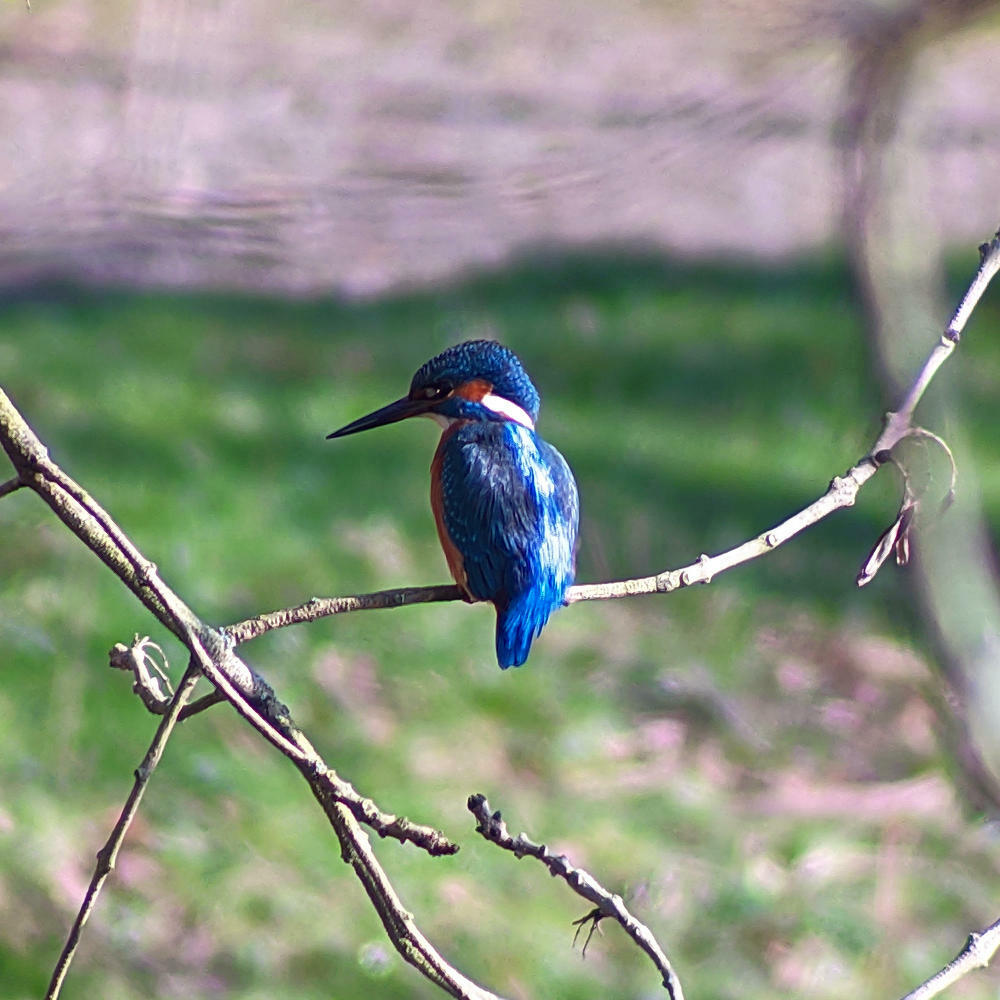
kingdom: Animalia
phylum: Chordata
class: Aves
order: Coraciiformes
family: Alcedinidae
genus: Alcedo
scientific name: Alcedo atthis
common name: Common kingfisher
